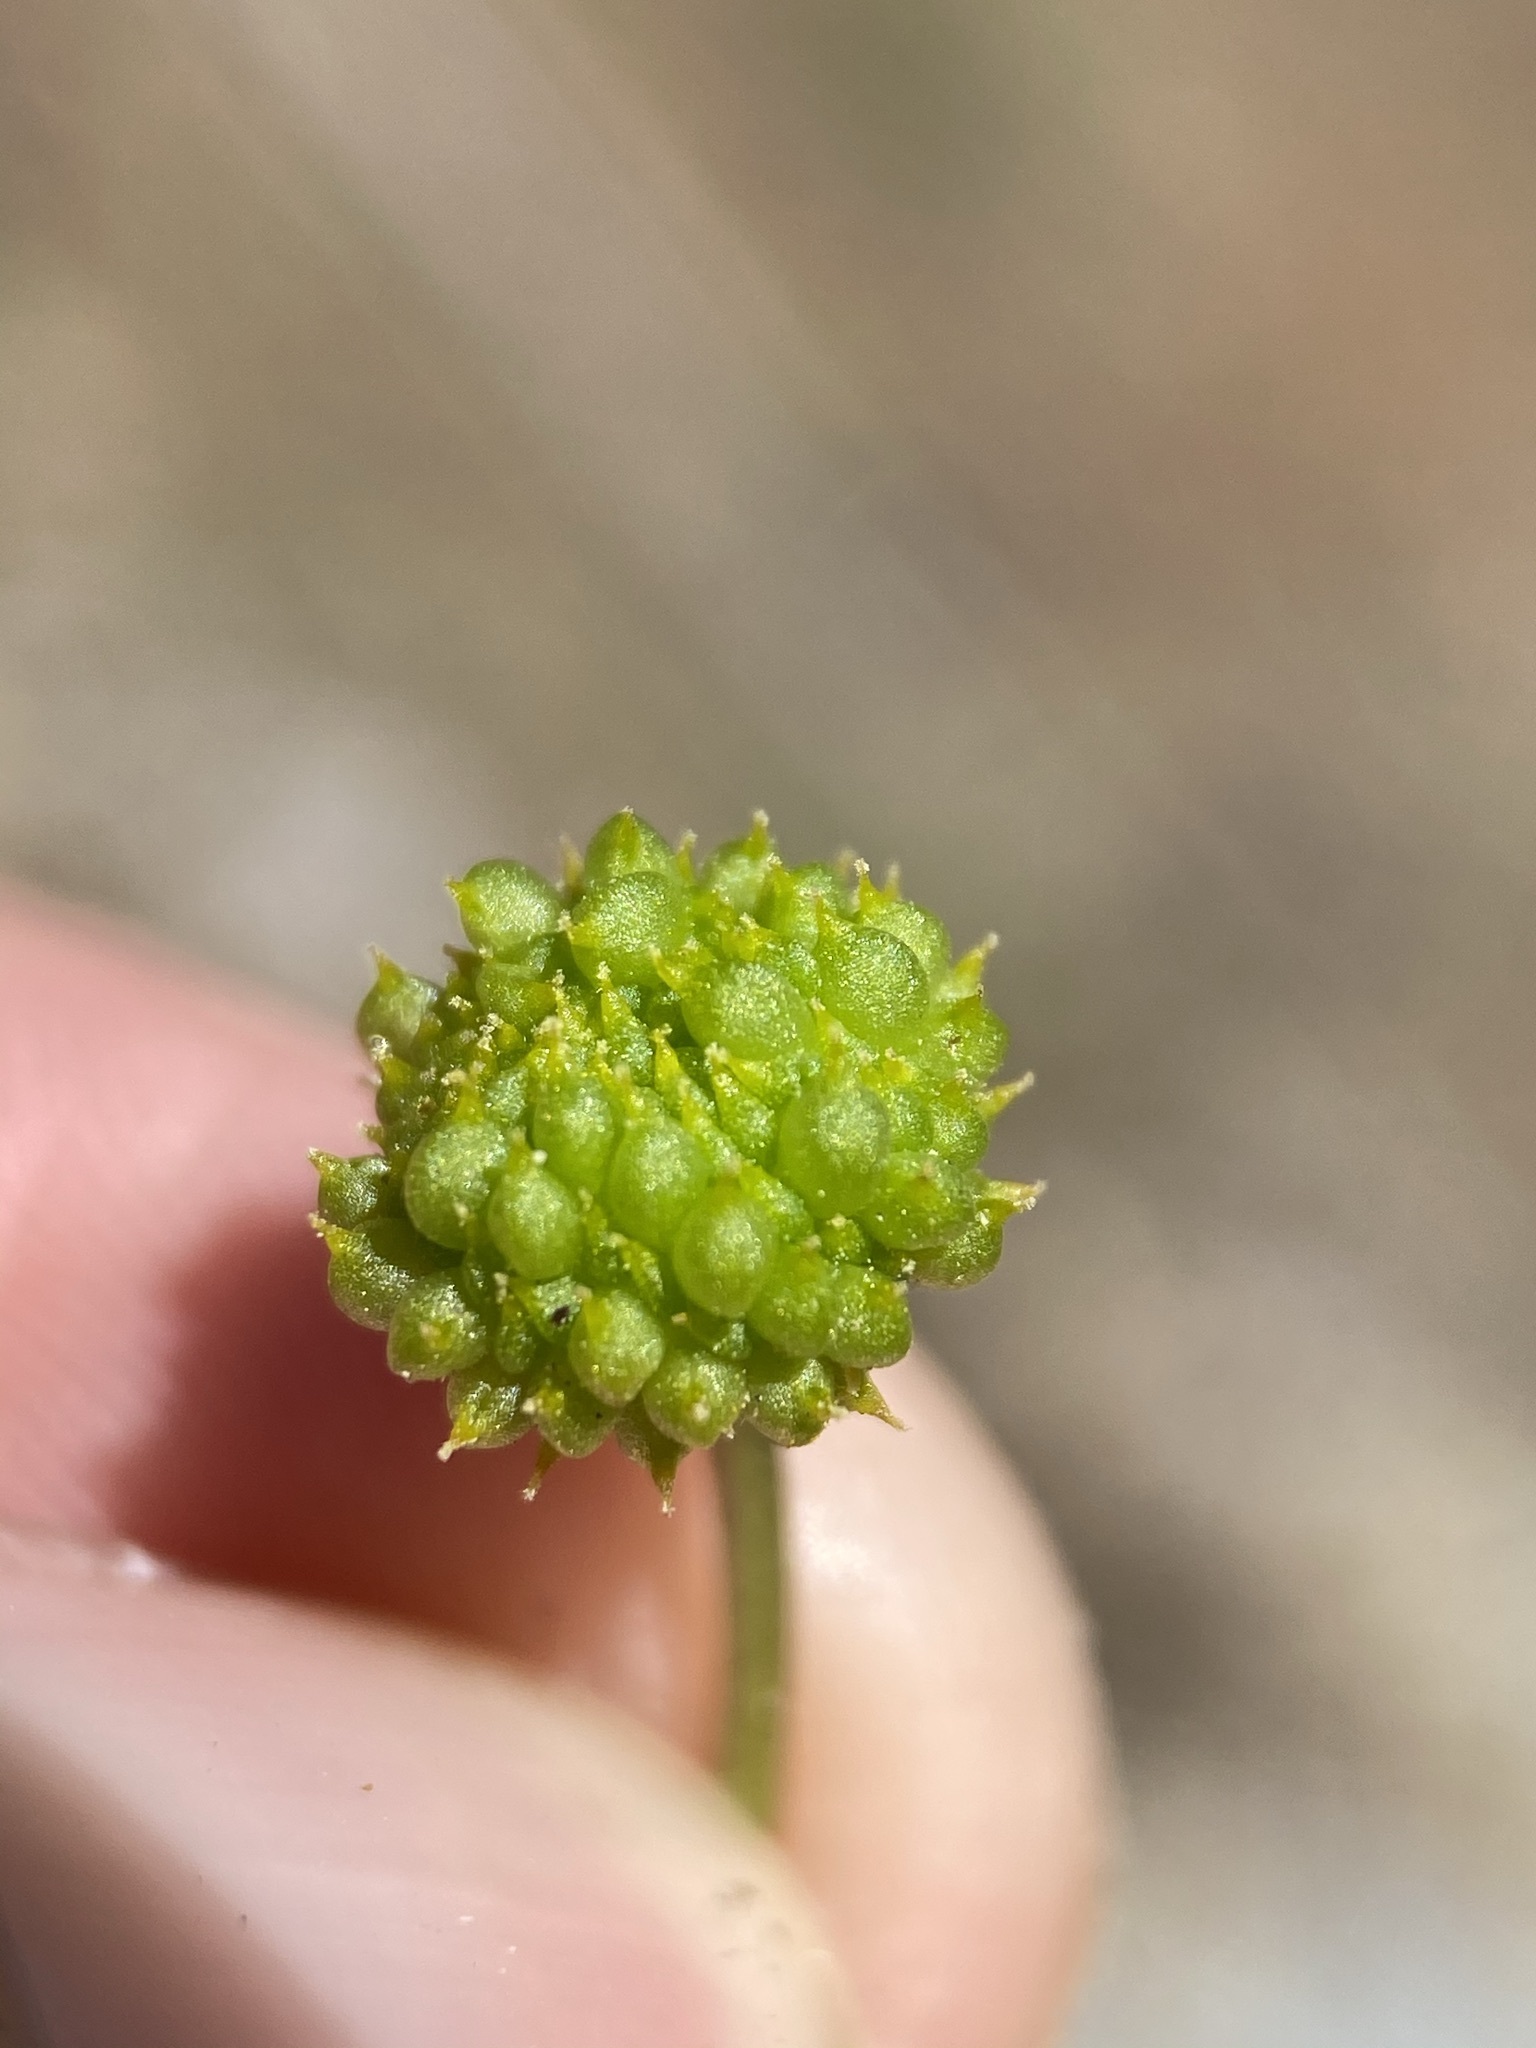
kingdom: Plantae
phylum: Tracheophyta
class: Magnoliopsida
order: Ranunculales
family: Ranunculaceae
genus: Ranunculus
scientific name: Ranunculus glaberrimus
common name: Sagebrush buttercup
